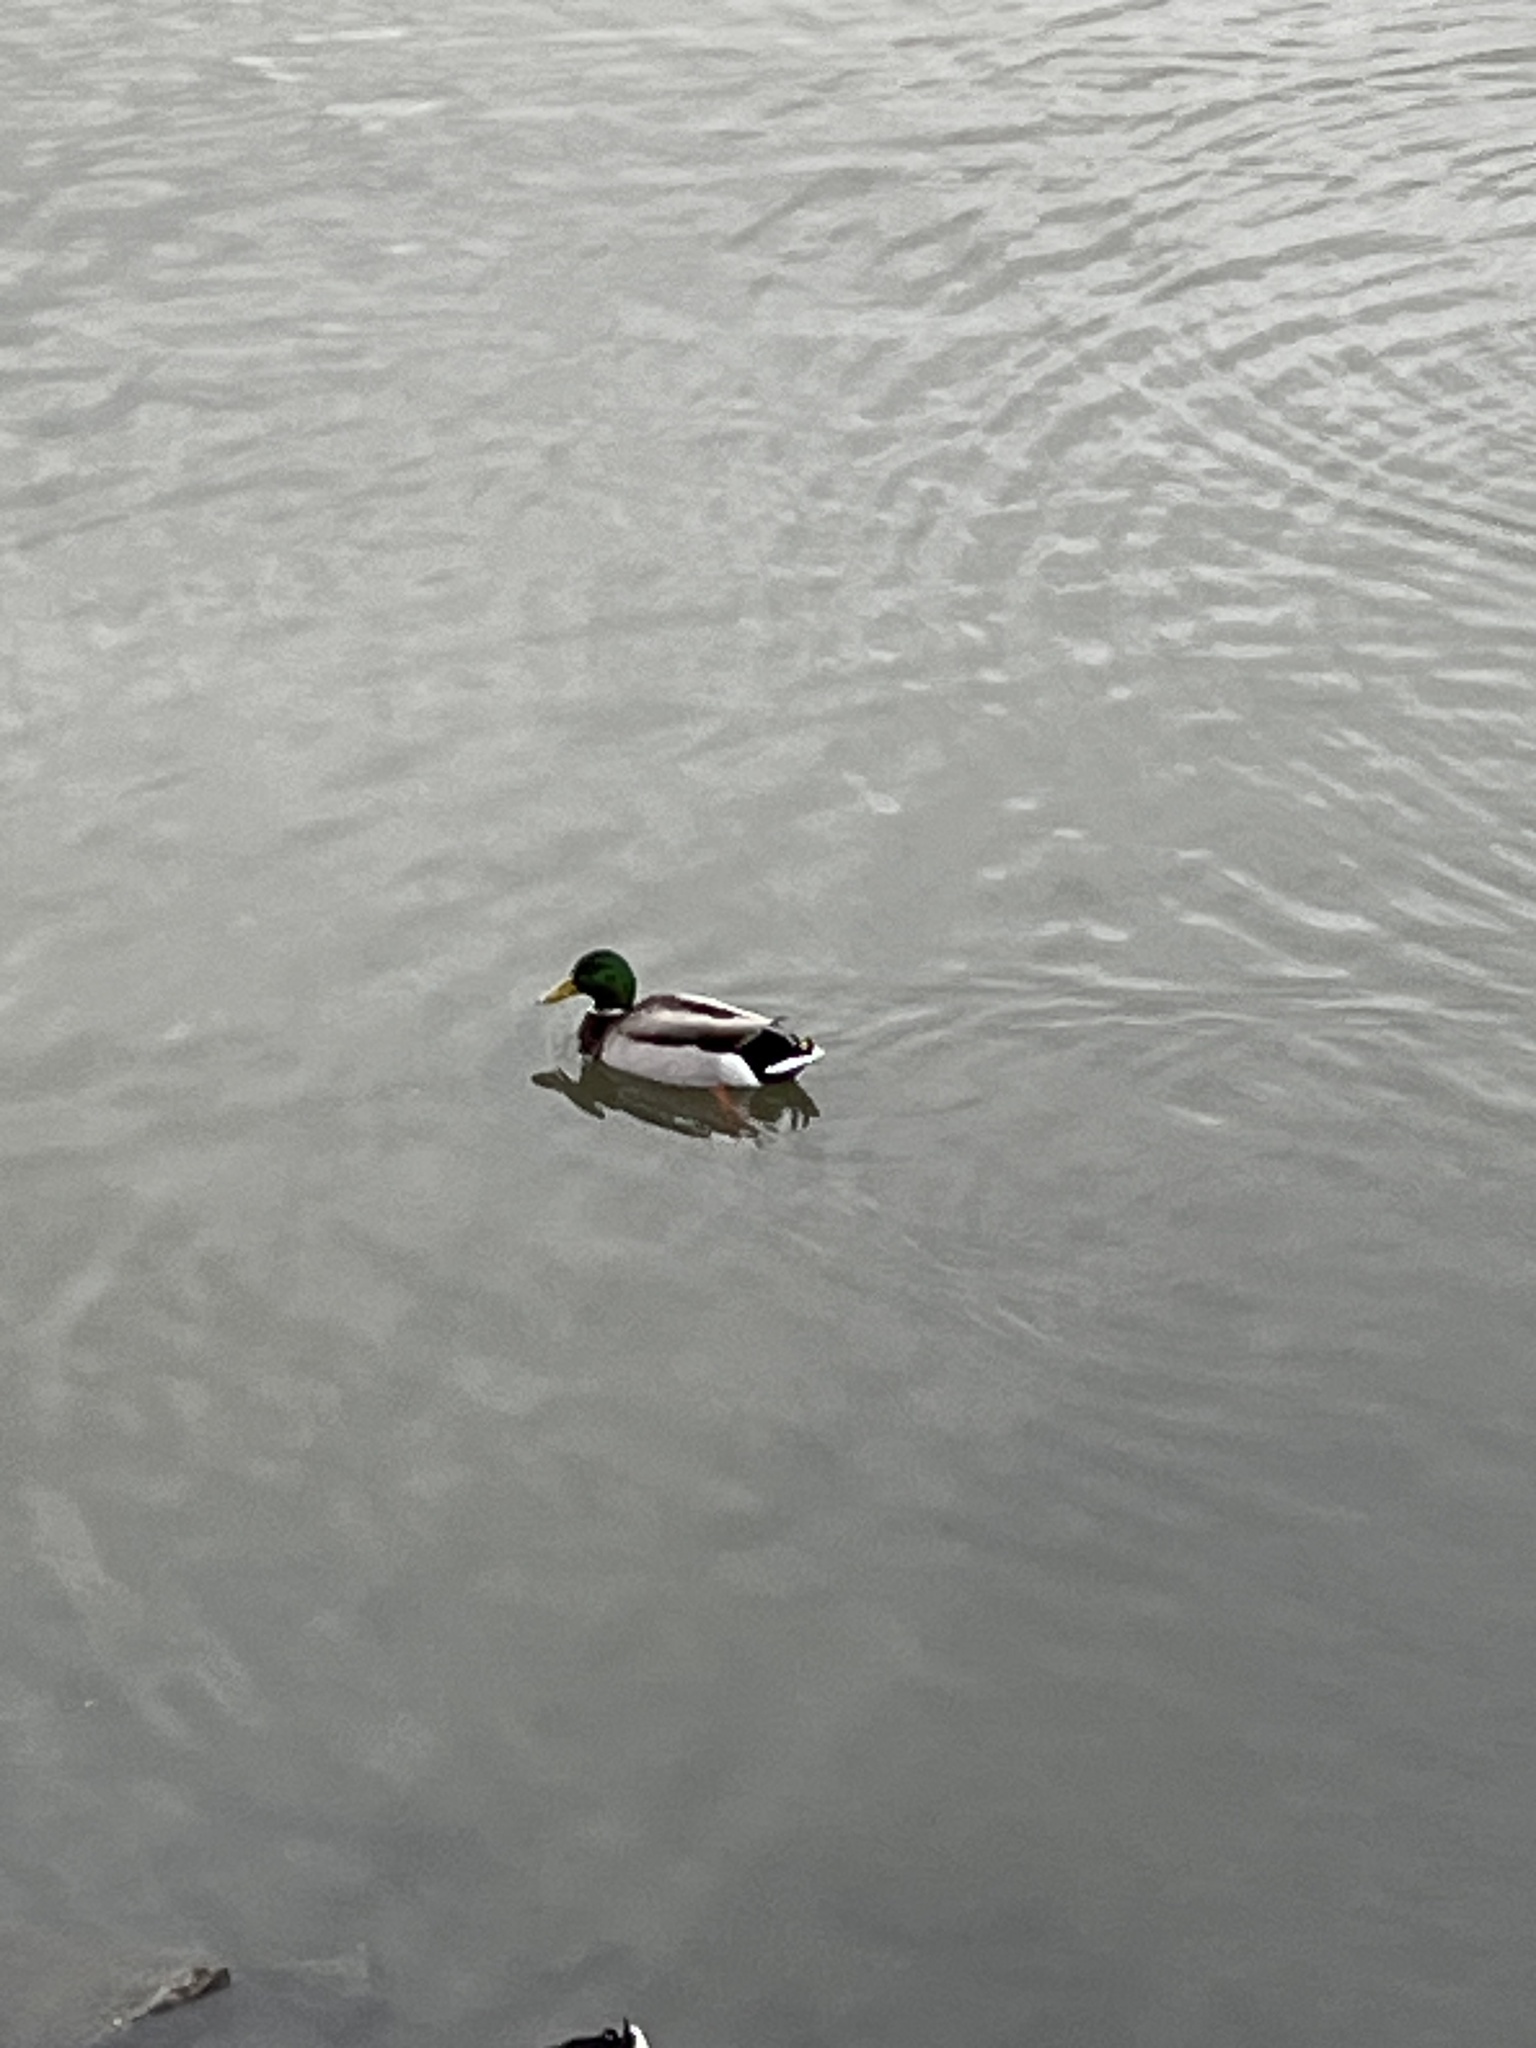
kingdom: Animalia
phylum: Chordata
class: Aves
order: Anseriformes
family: Anatidae
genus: Anas
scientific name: Anas platyrhynchos
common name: Mallard
